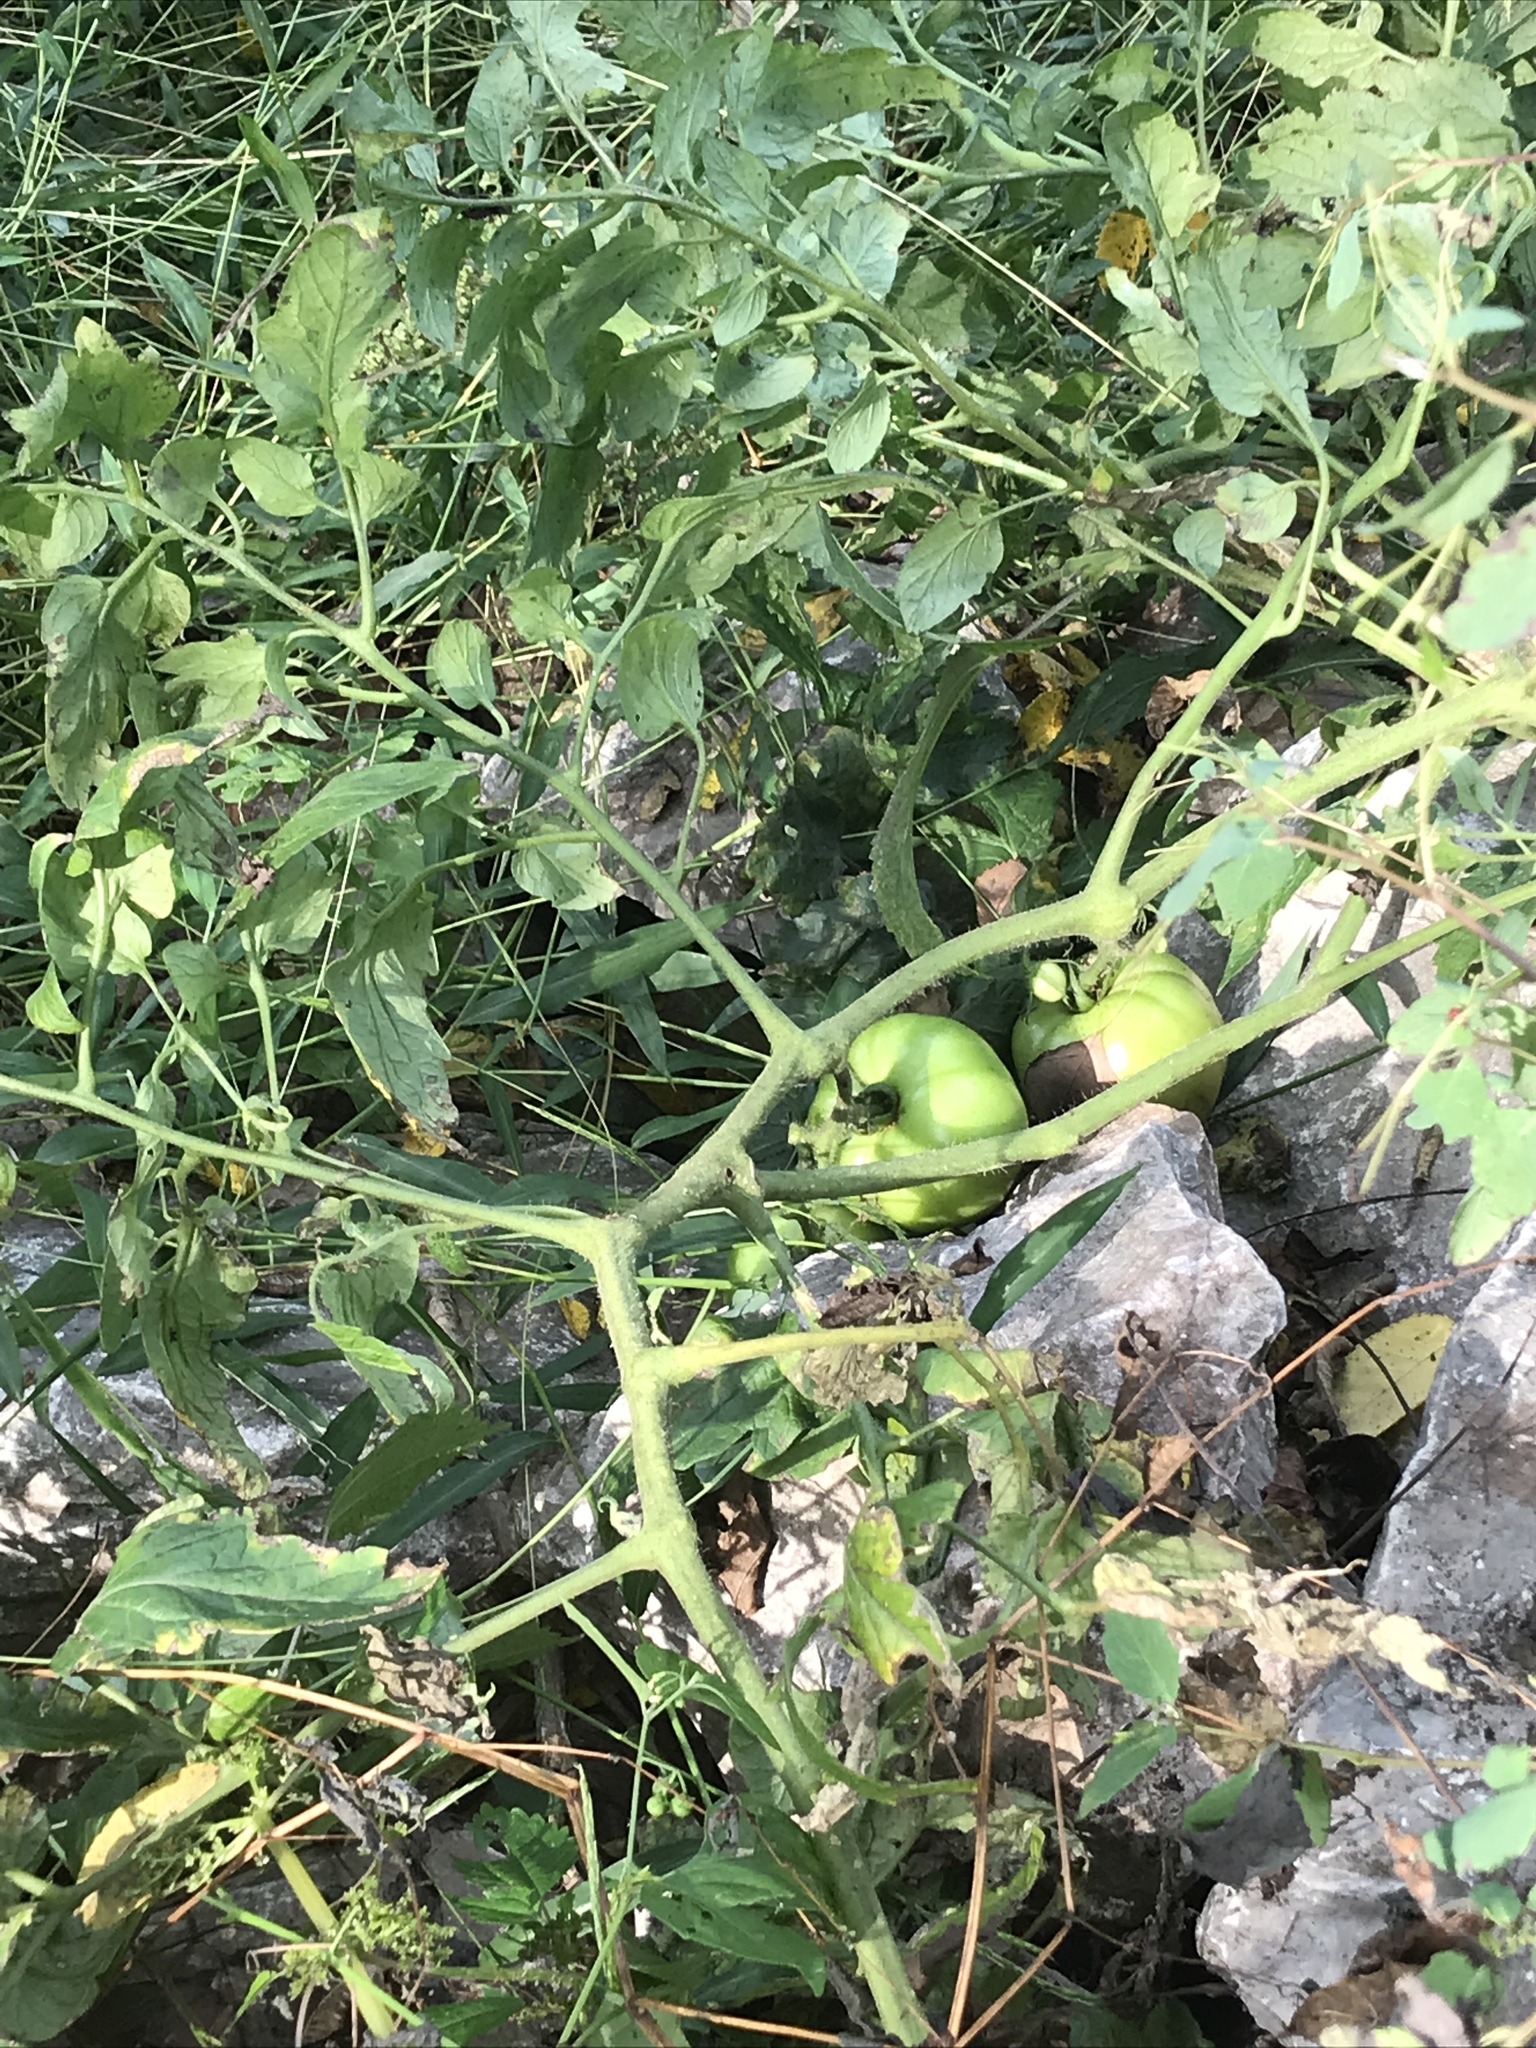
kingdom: Plantae
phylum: Tracheophyta
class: Magnoliopsida
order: Solanales
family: Solanaceae
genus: Solanum
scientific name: Solanum lycopersicum
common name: Garden tomato
